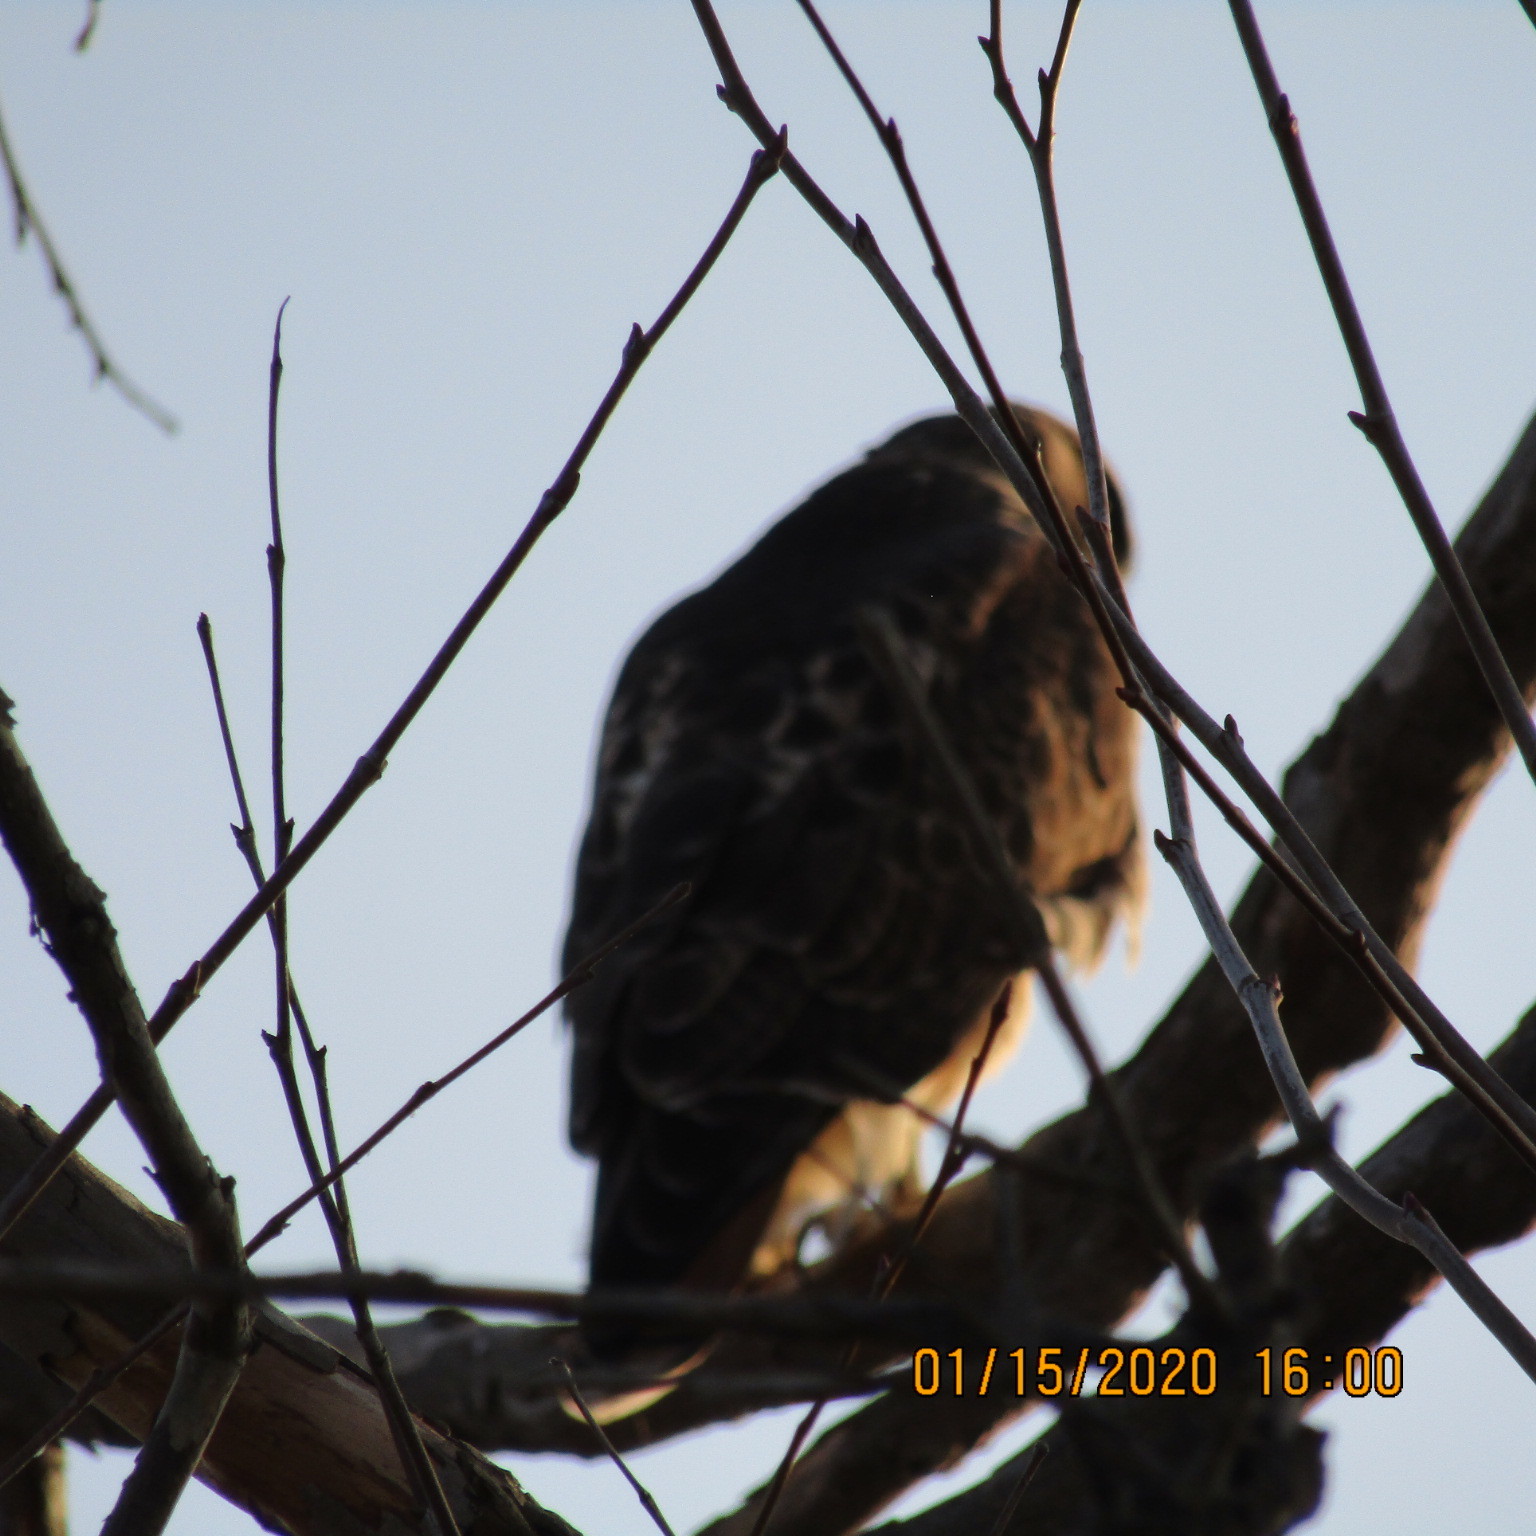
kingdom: Animalia
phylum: Chordata
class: Aves
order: Accipitriformes
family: Accipitridae
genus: Buteo
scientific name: Buteo jamaicensis
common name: Red-tailed hawk
